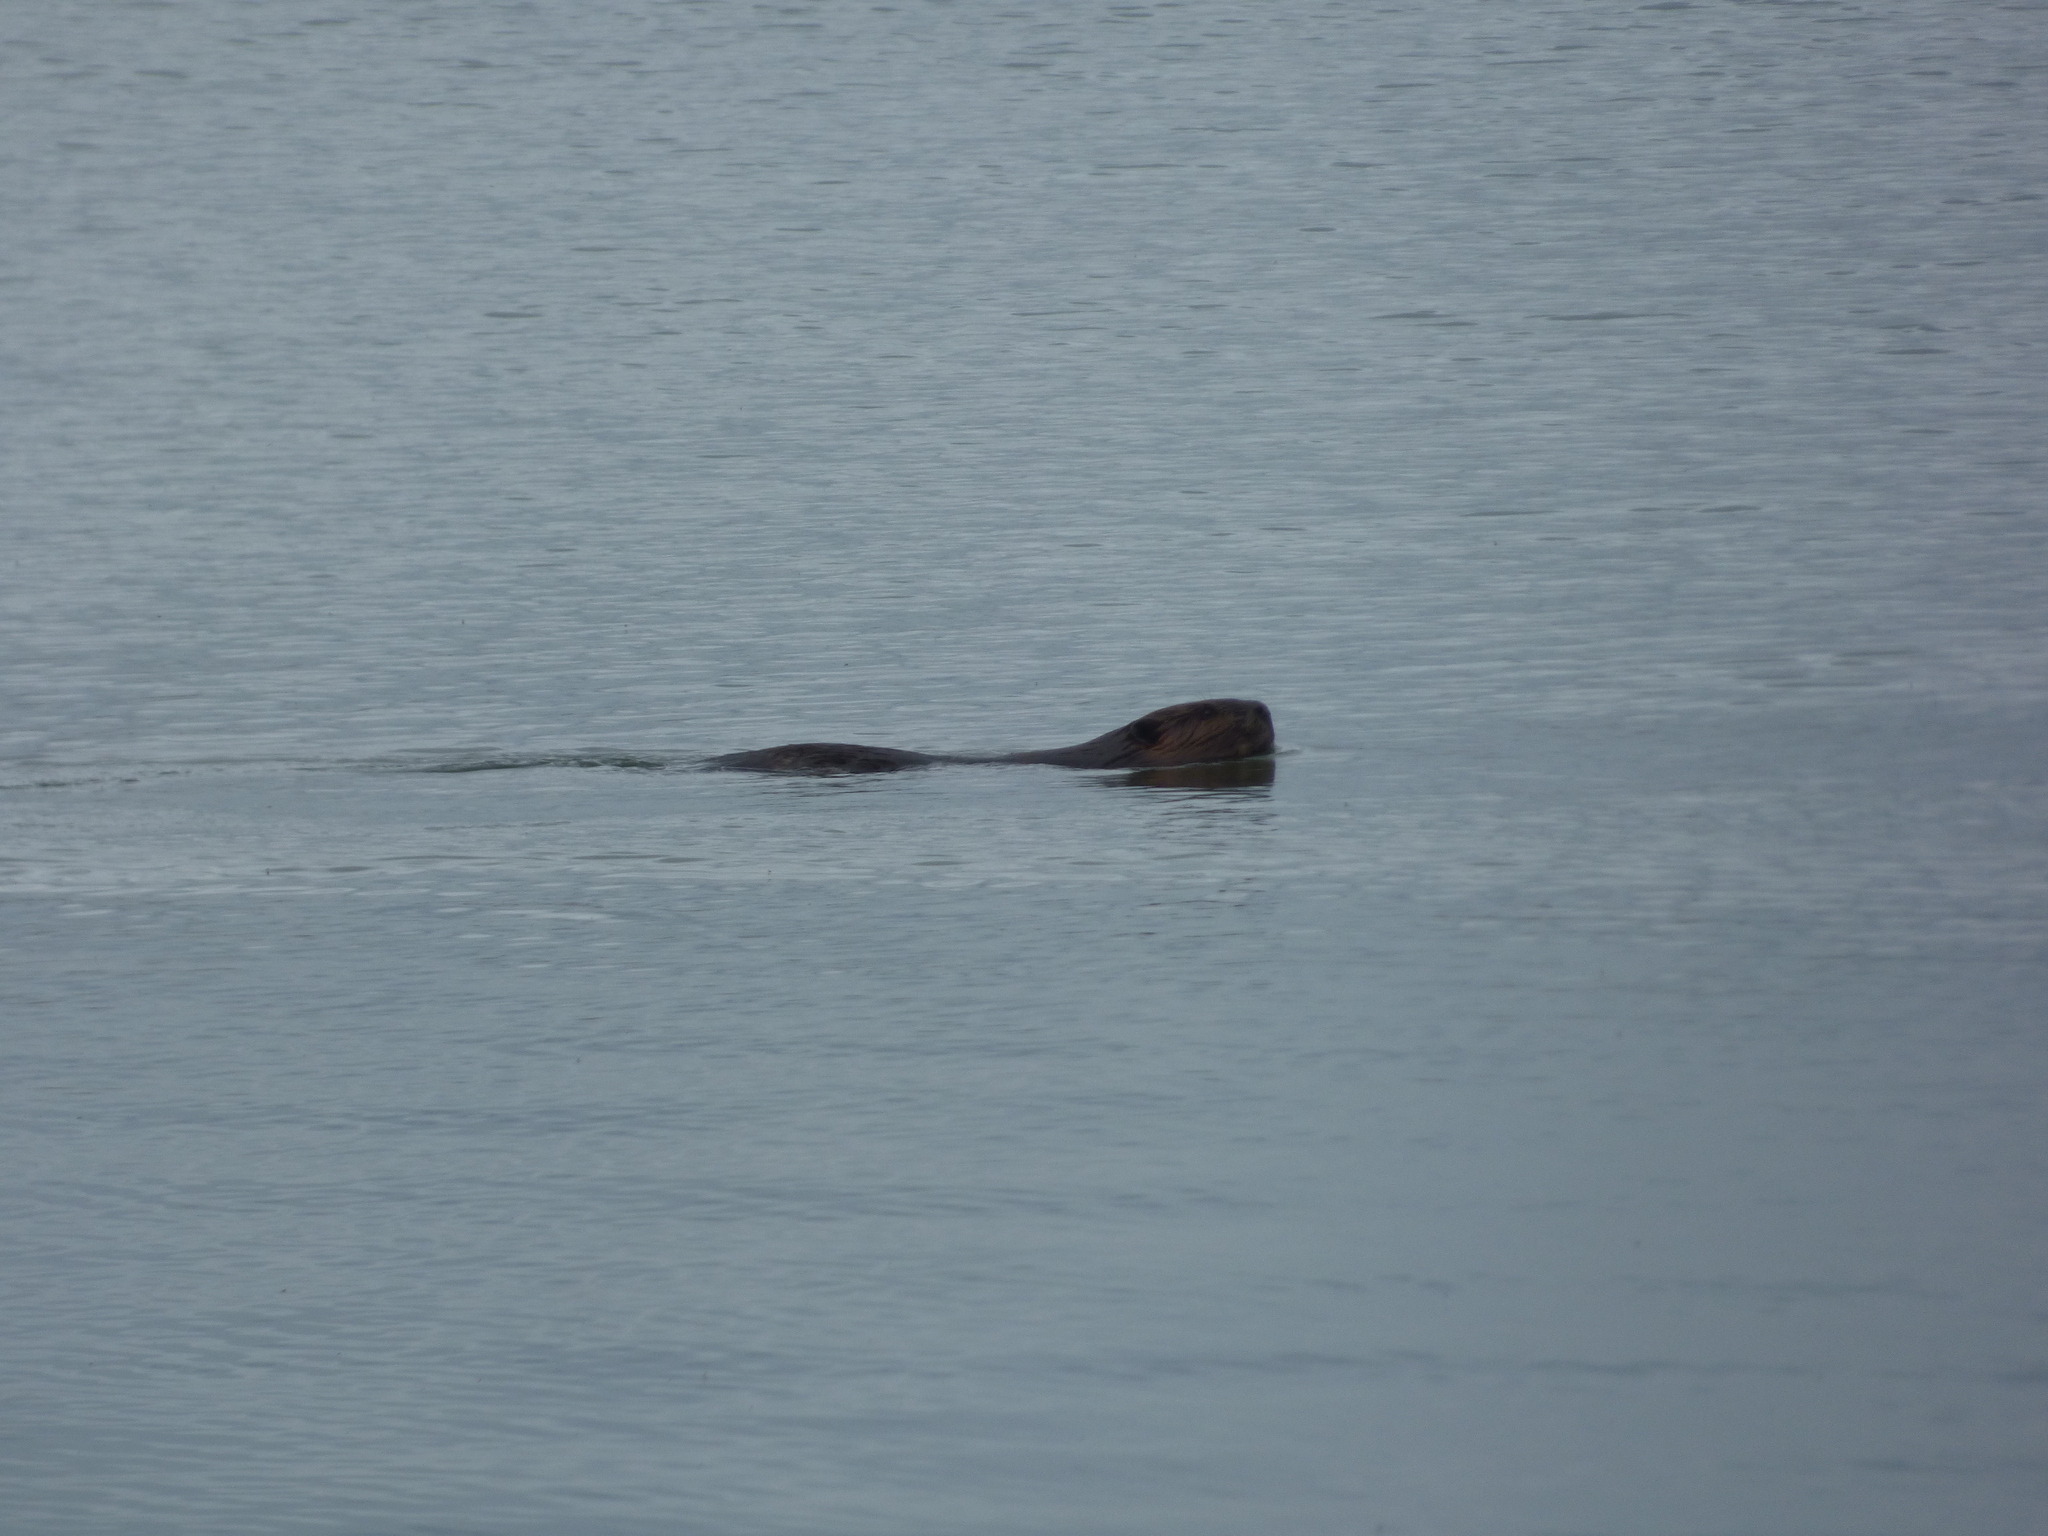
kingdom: Animalia
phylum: Chordata
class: Mammalia
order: Rodentia
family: Castoridae
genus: Castor
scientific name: Castor canadensis
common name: American beaver
